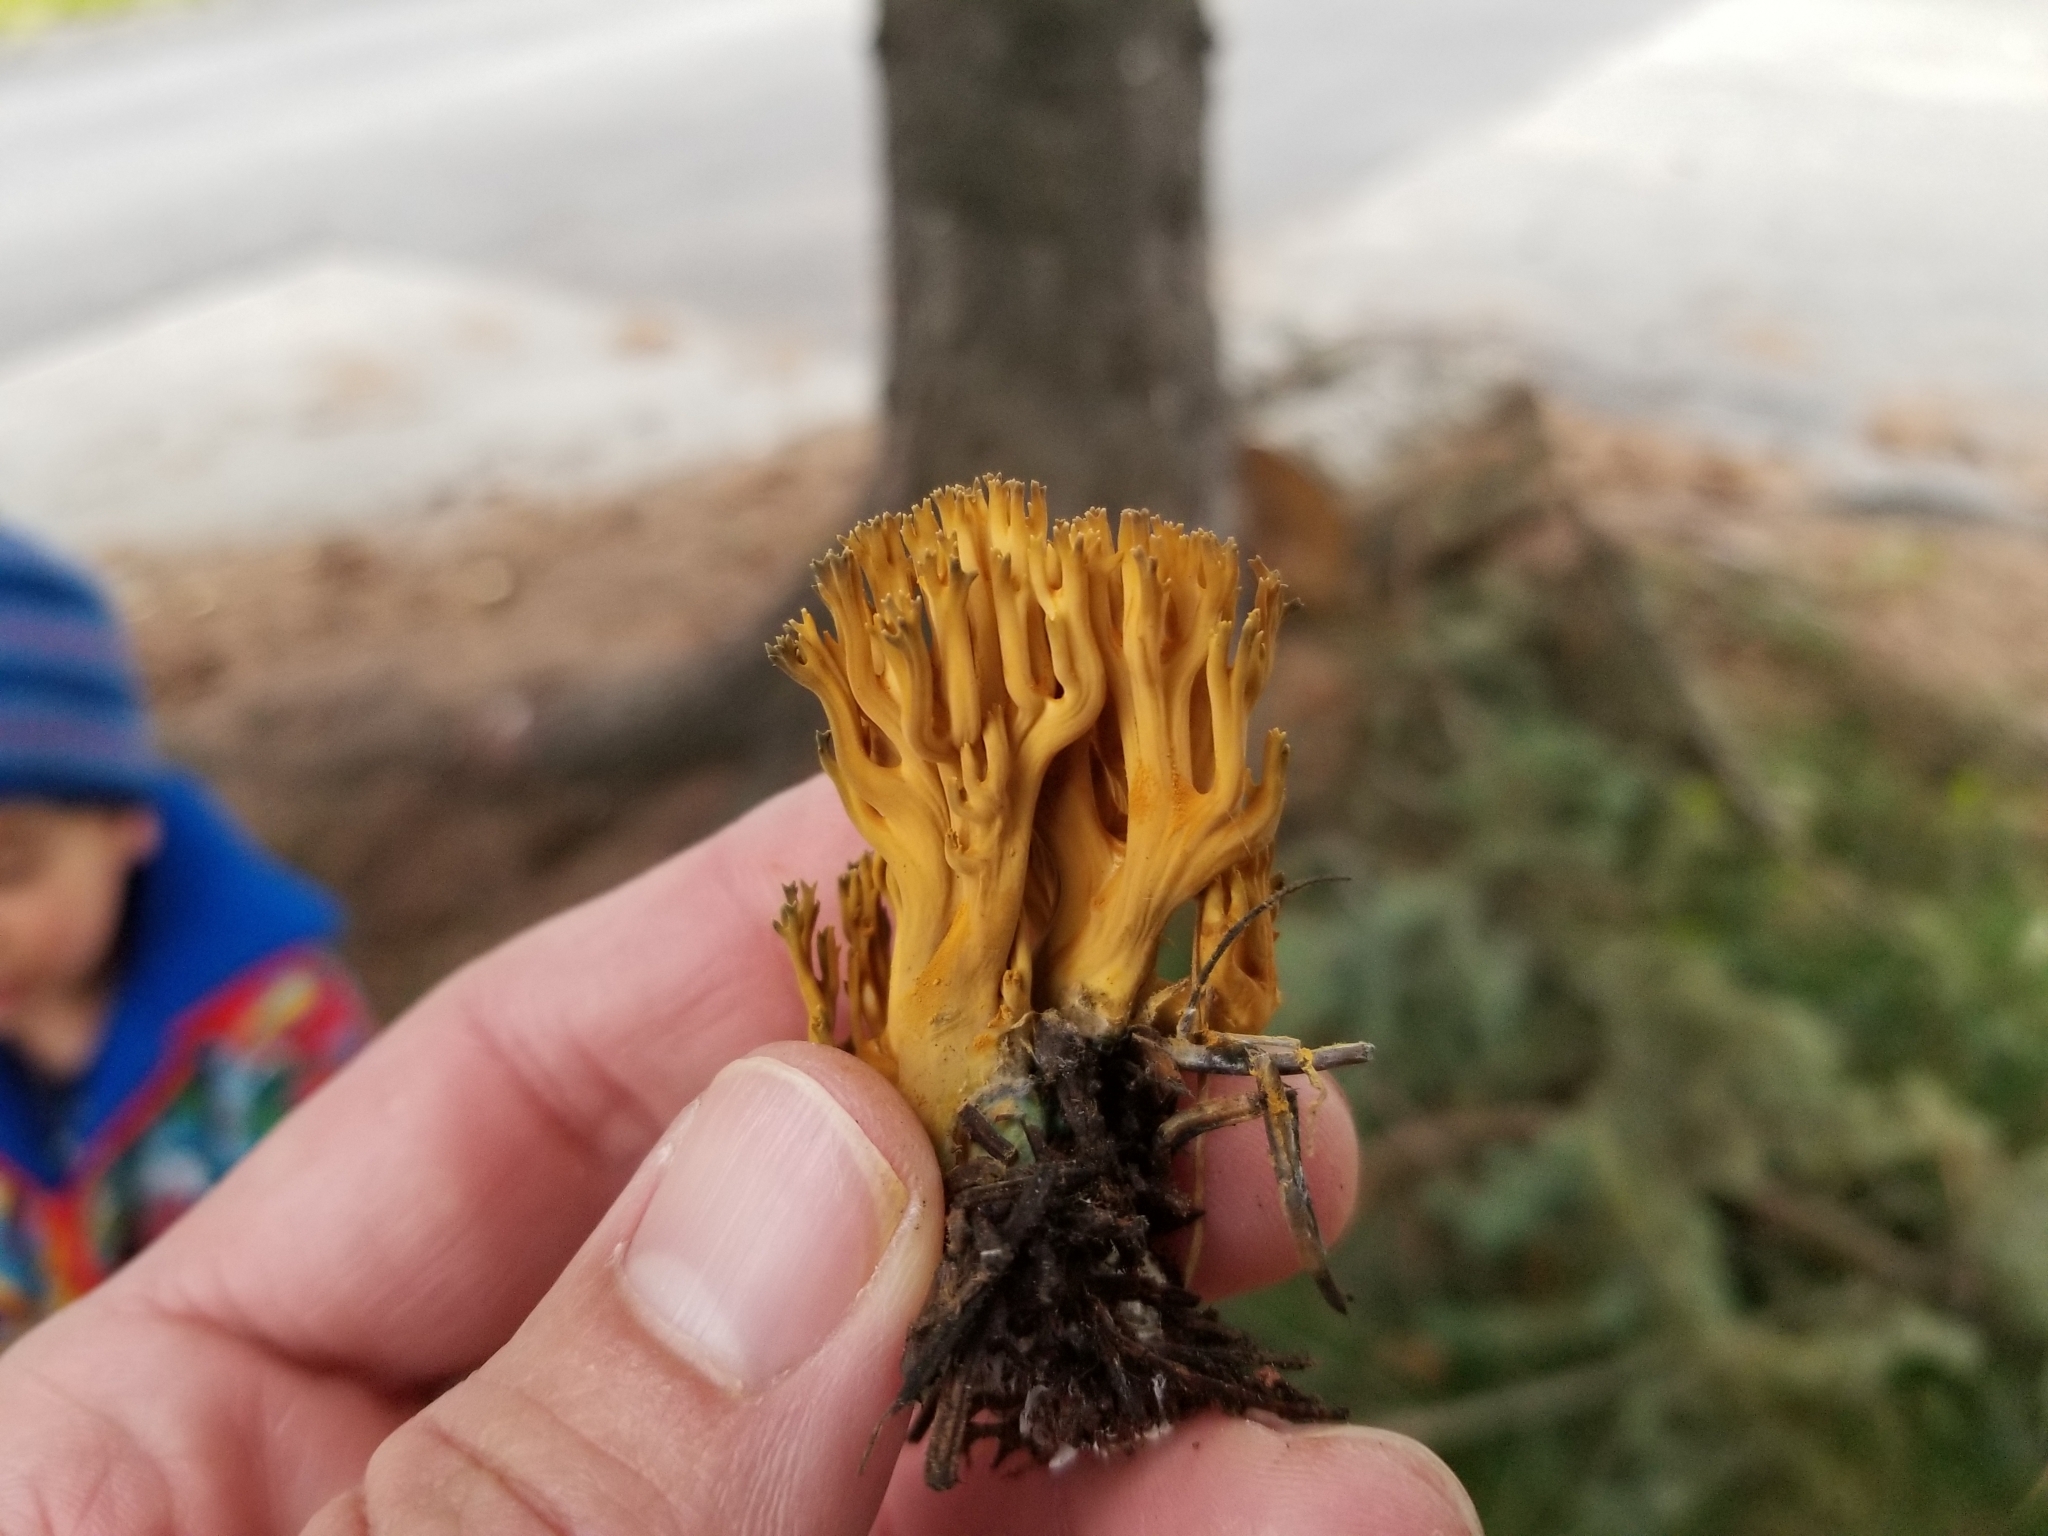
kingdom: Fungi
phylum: Basidiomycota
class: Agaricomycetes
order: Gomphales
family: Gomphaceae
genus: Phaeoclavulina
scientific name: Phaeoclavulina
